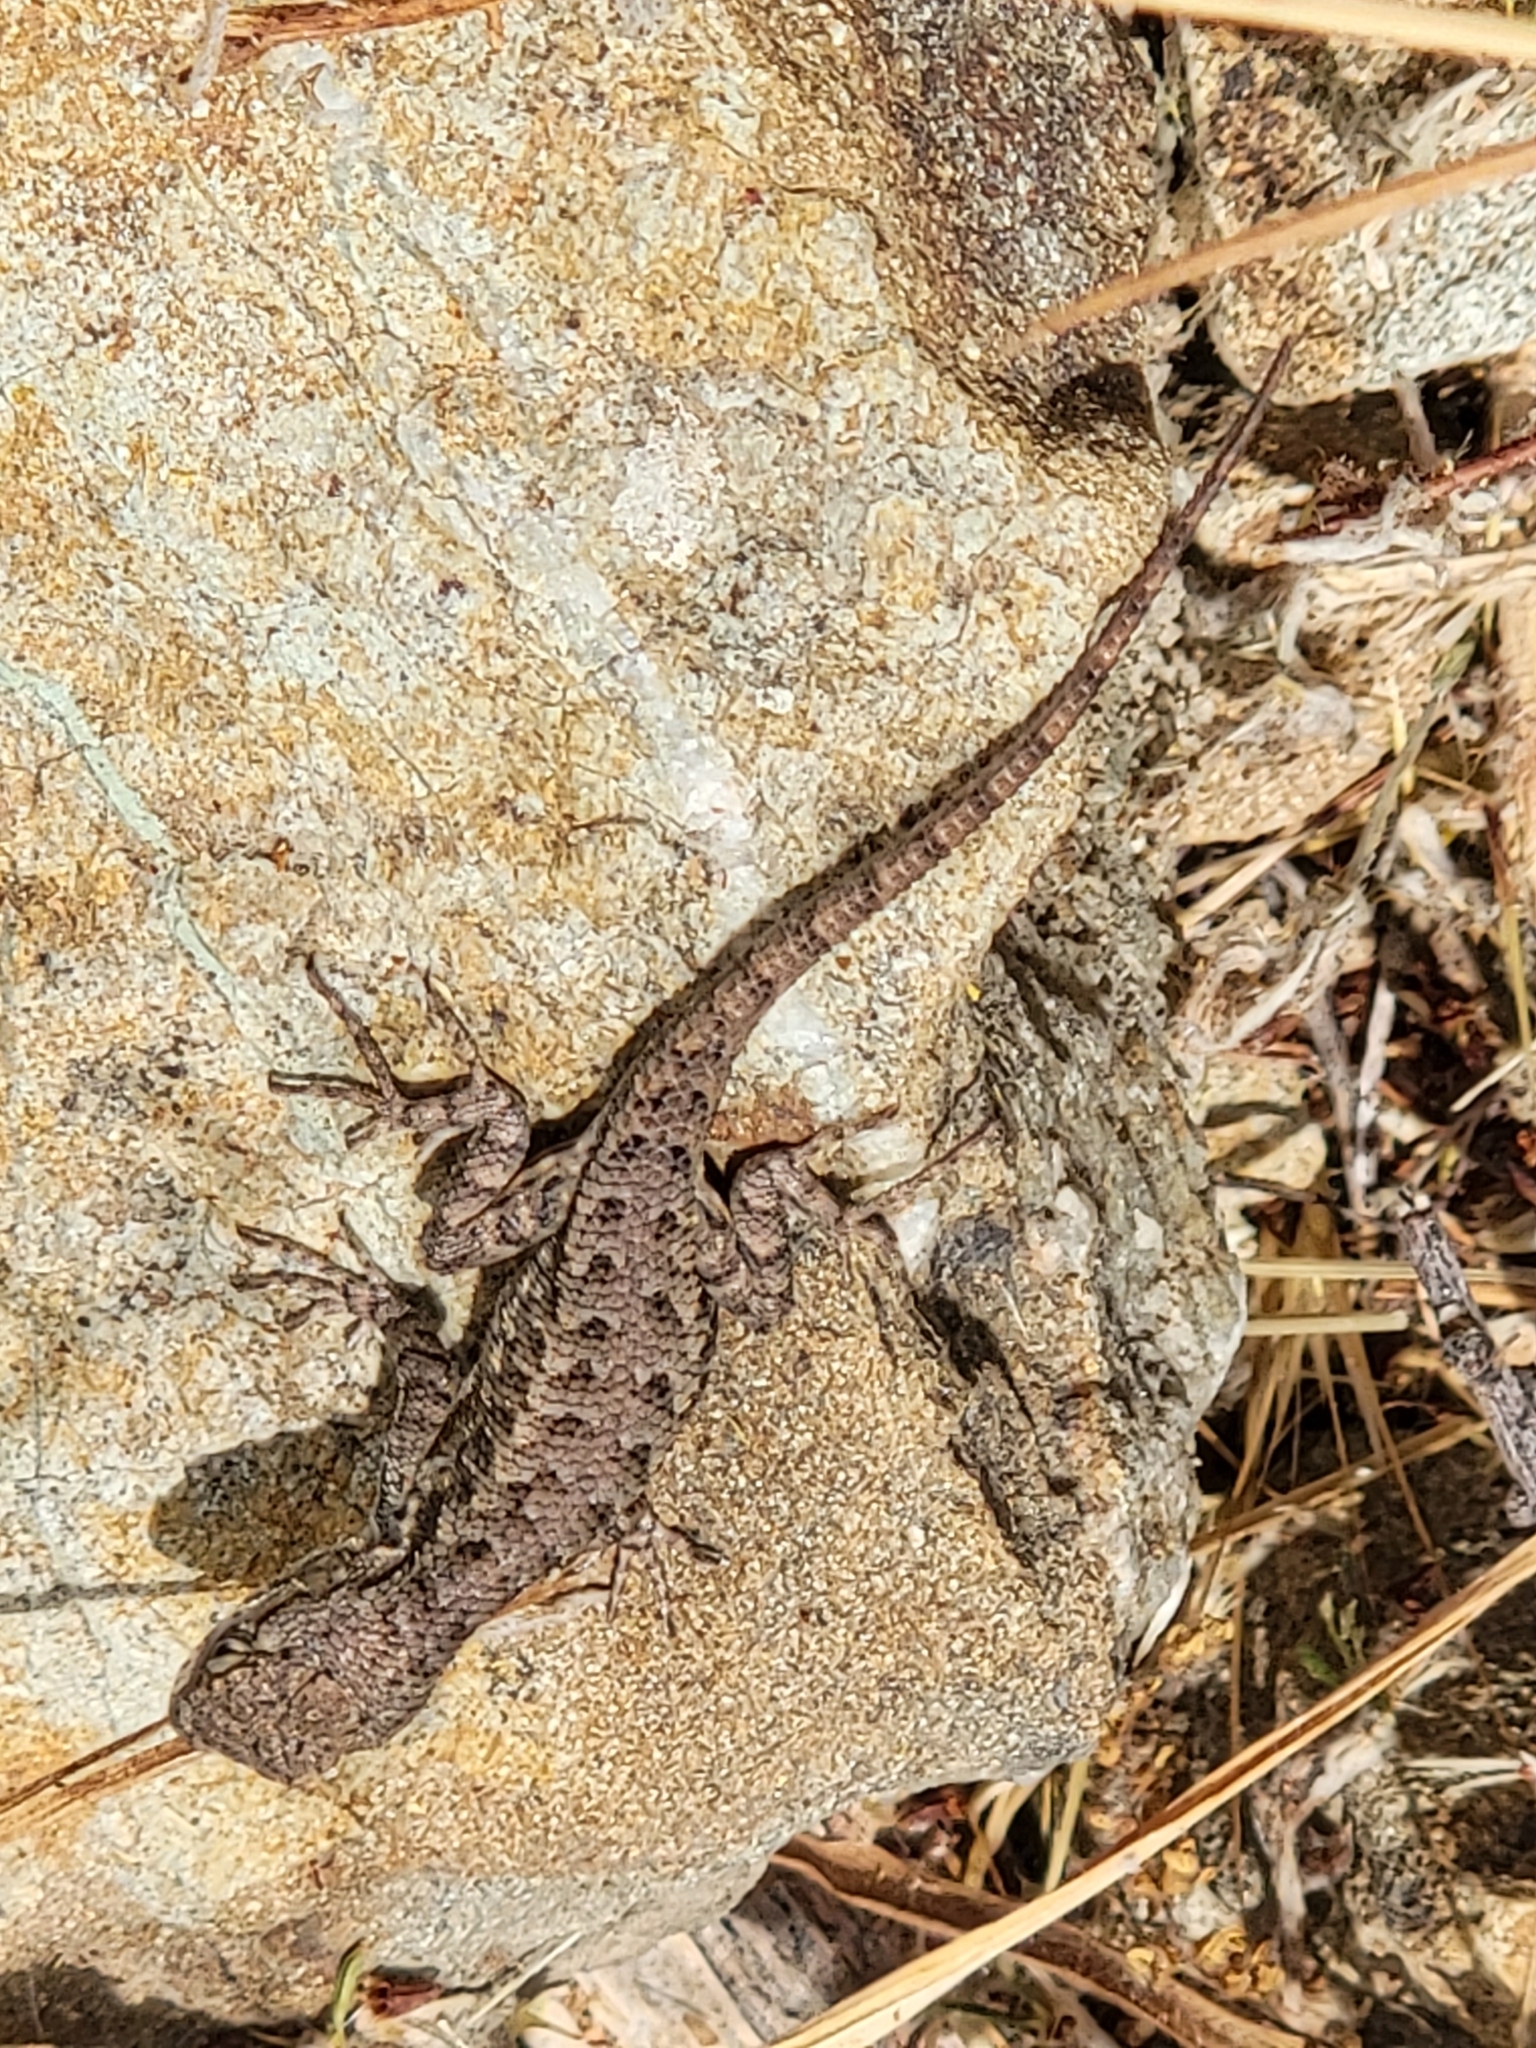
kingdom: Animalia
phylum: Chordata
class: Squamata
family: Phrynosomatidae
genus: Sceloporus
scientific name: Sceloporus occidentalis
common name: Western fence lizard
